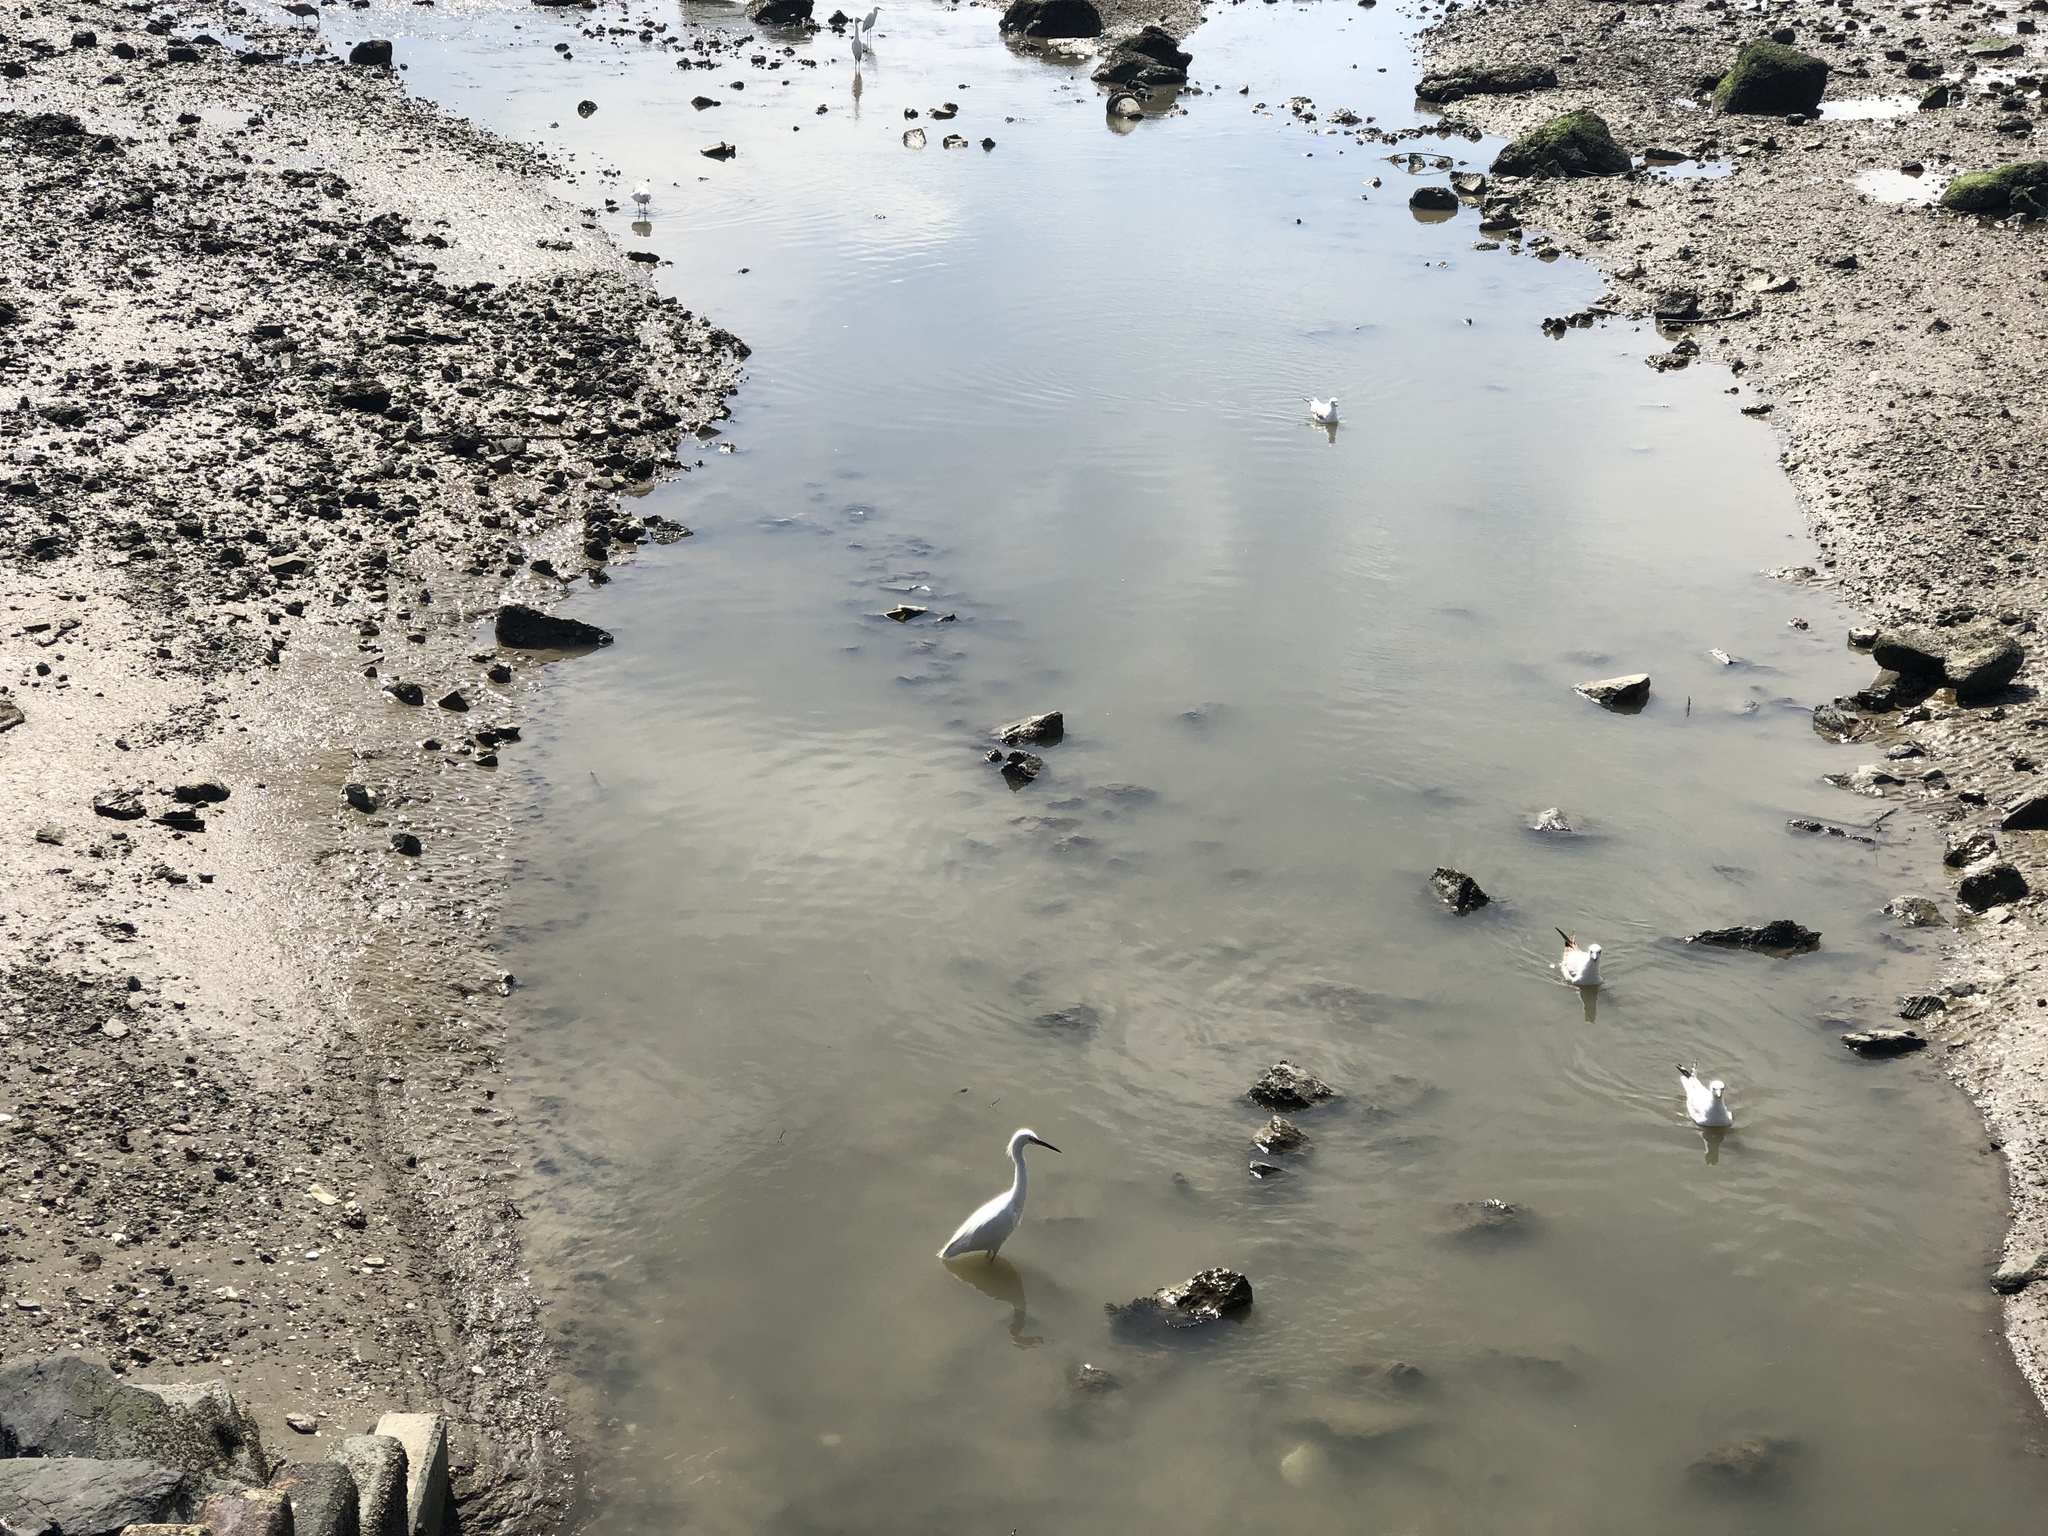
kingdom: Animalia
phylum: Chordata
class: Aves
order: Pelecaniformes
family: Ardeidae
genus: Egretta
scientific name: Egretta thula
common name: Snowy egret
